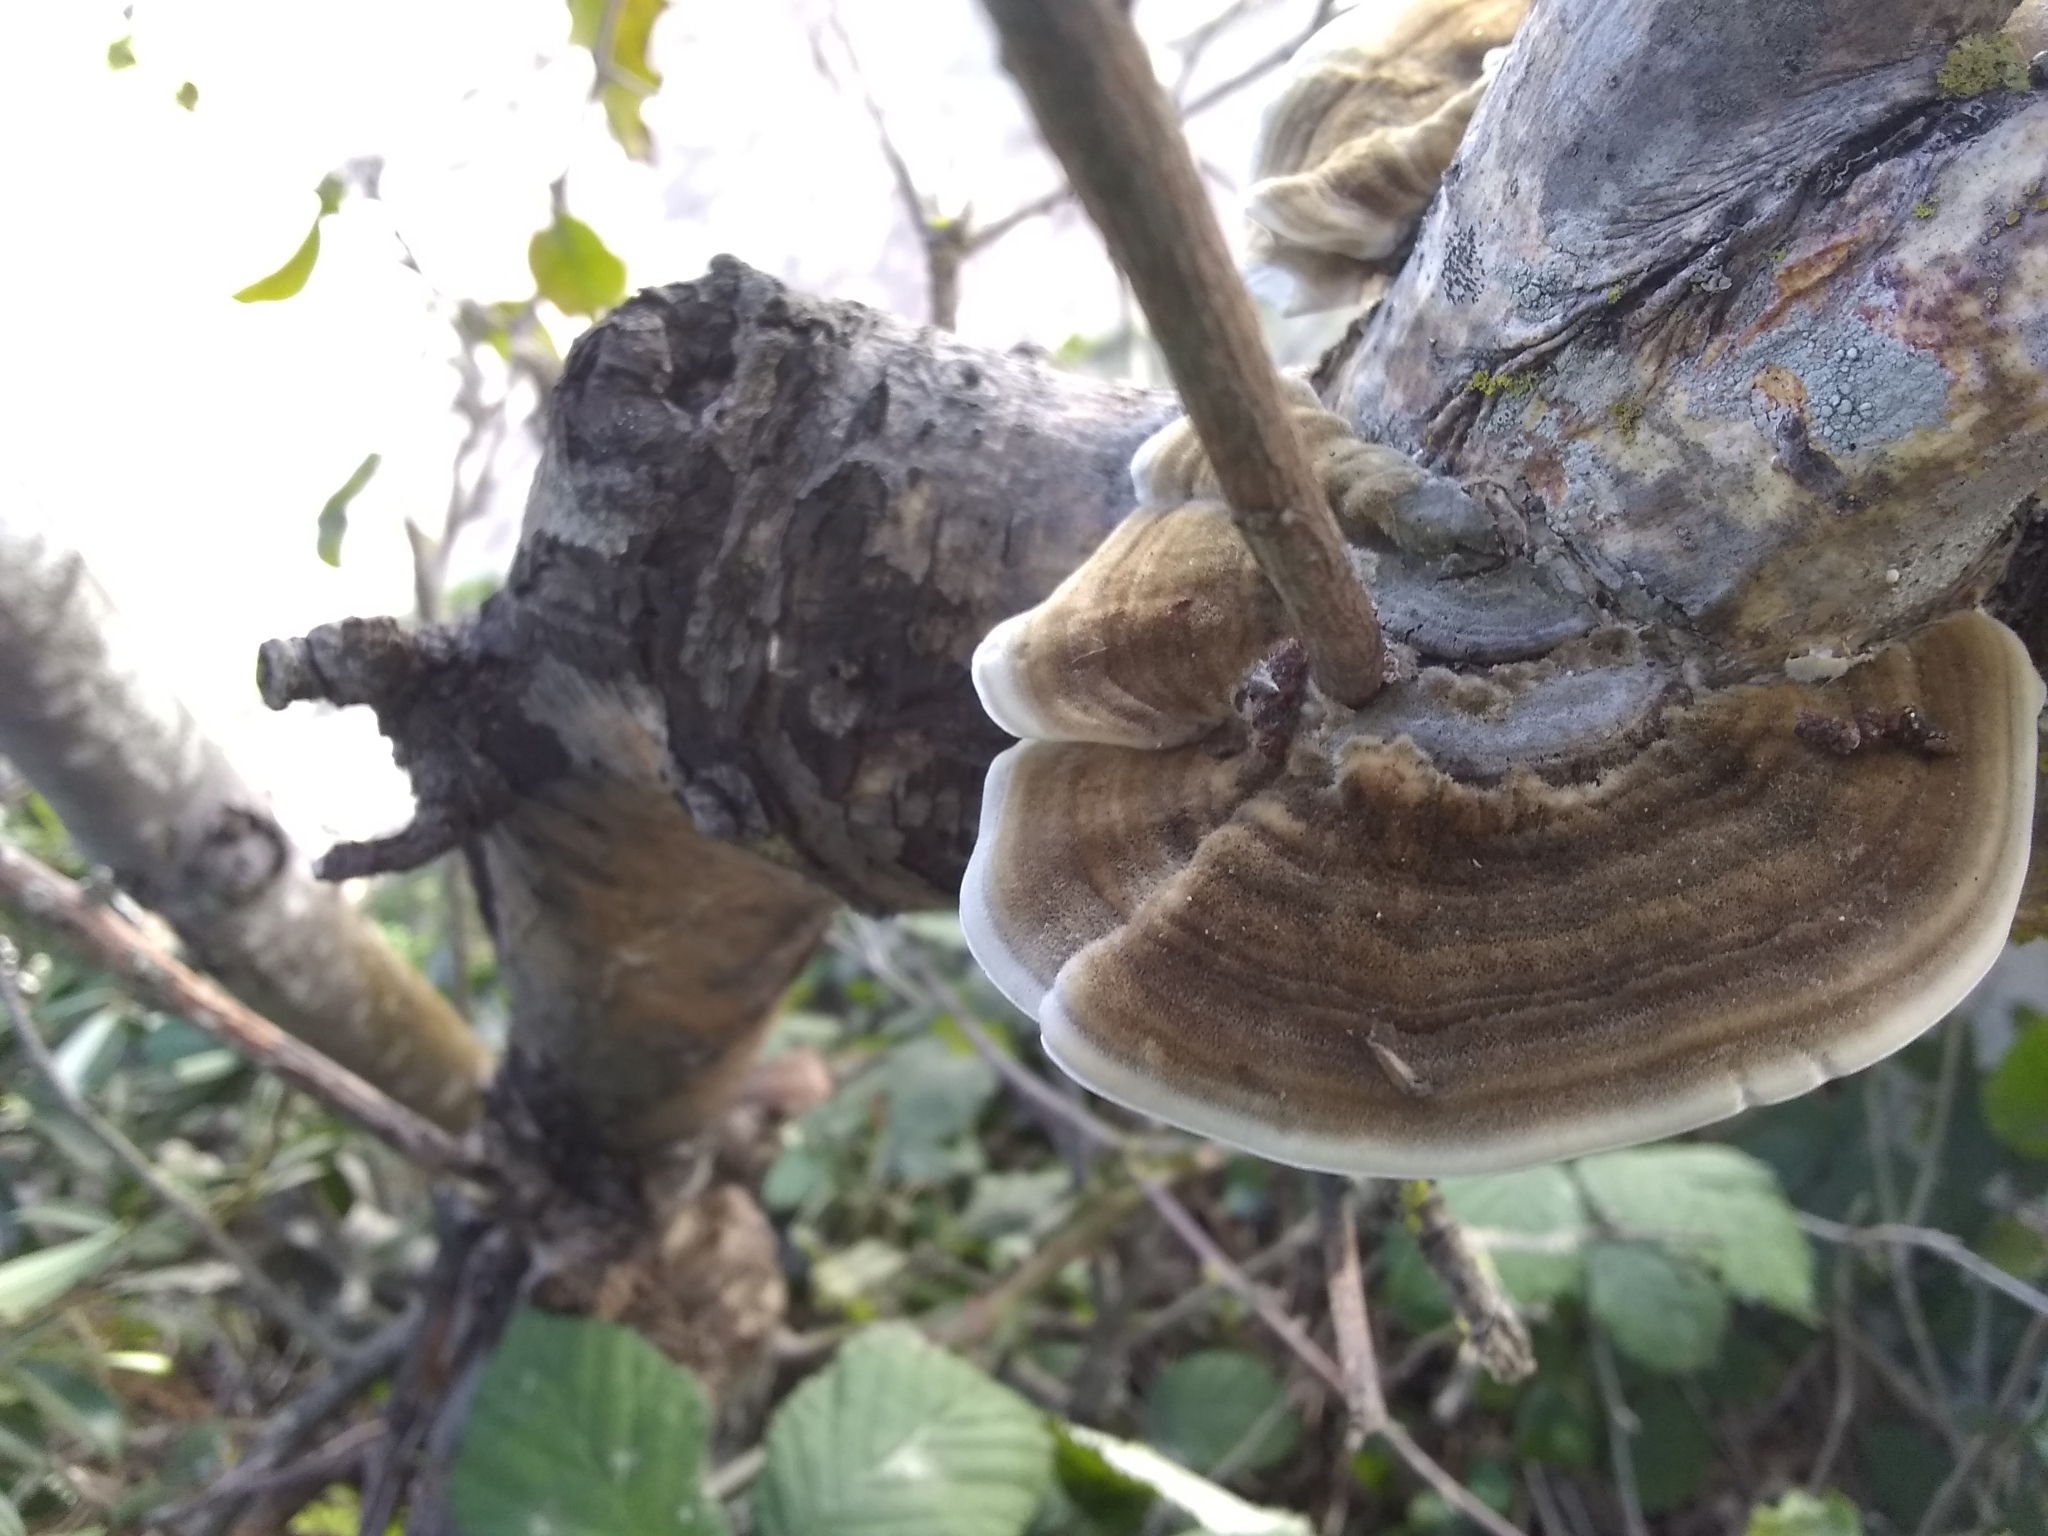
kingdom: Fungi
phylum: Basidiomycota
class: Agaricomycetes
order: Polyporales
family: Polyporaceae
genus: Trametes
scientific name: Trametes versicolor
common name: Turkeytail
